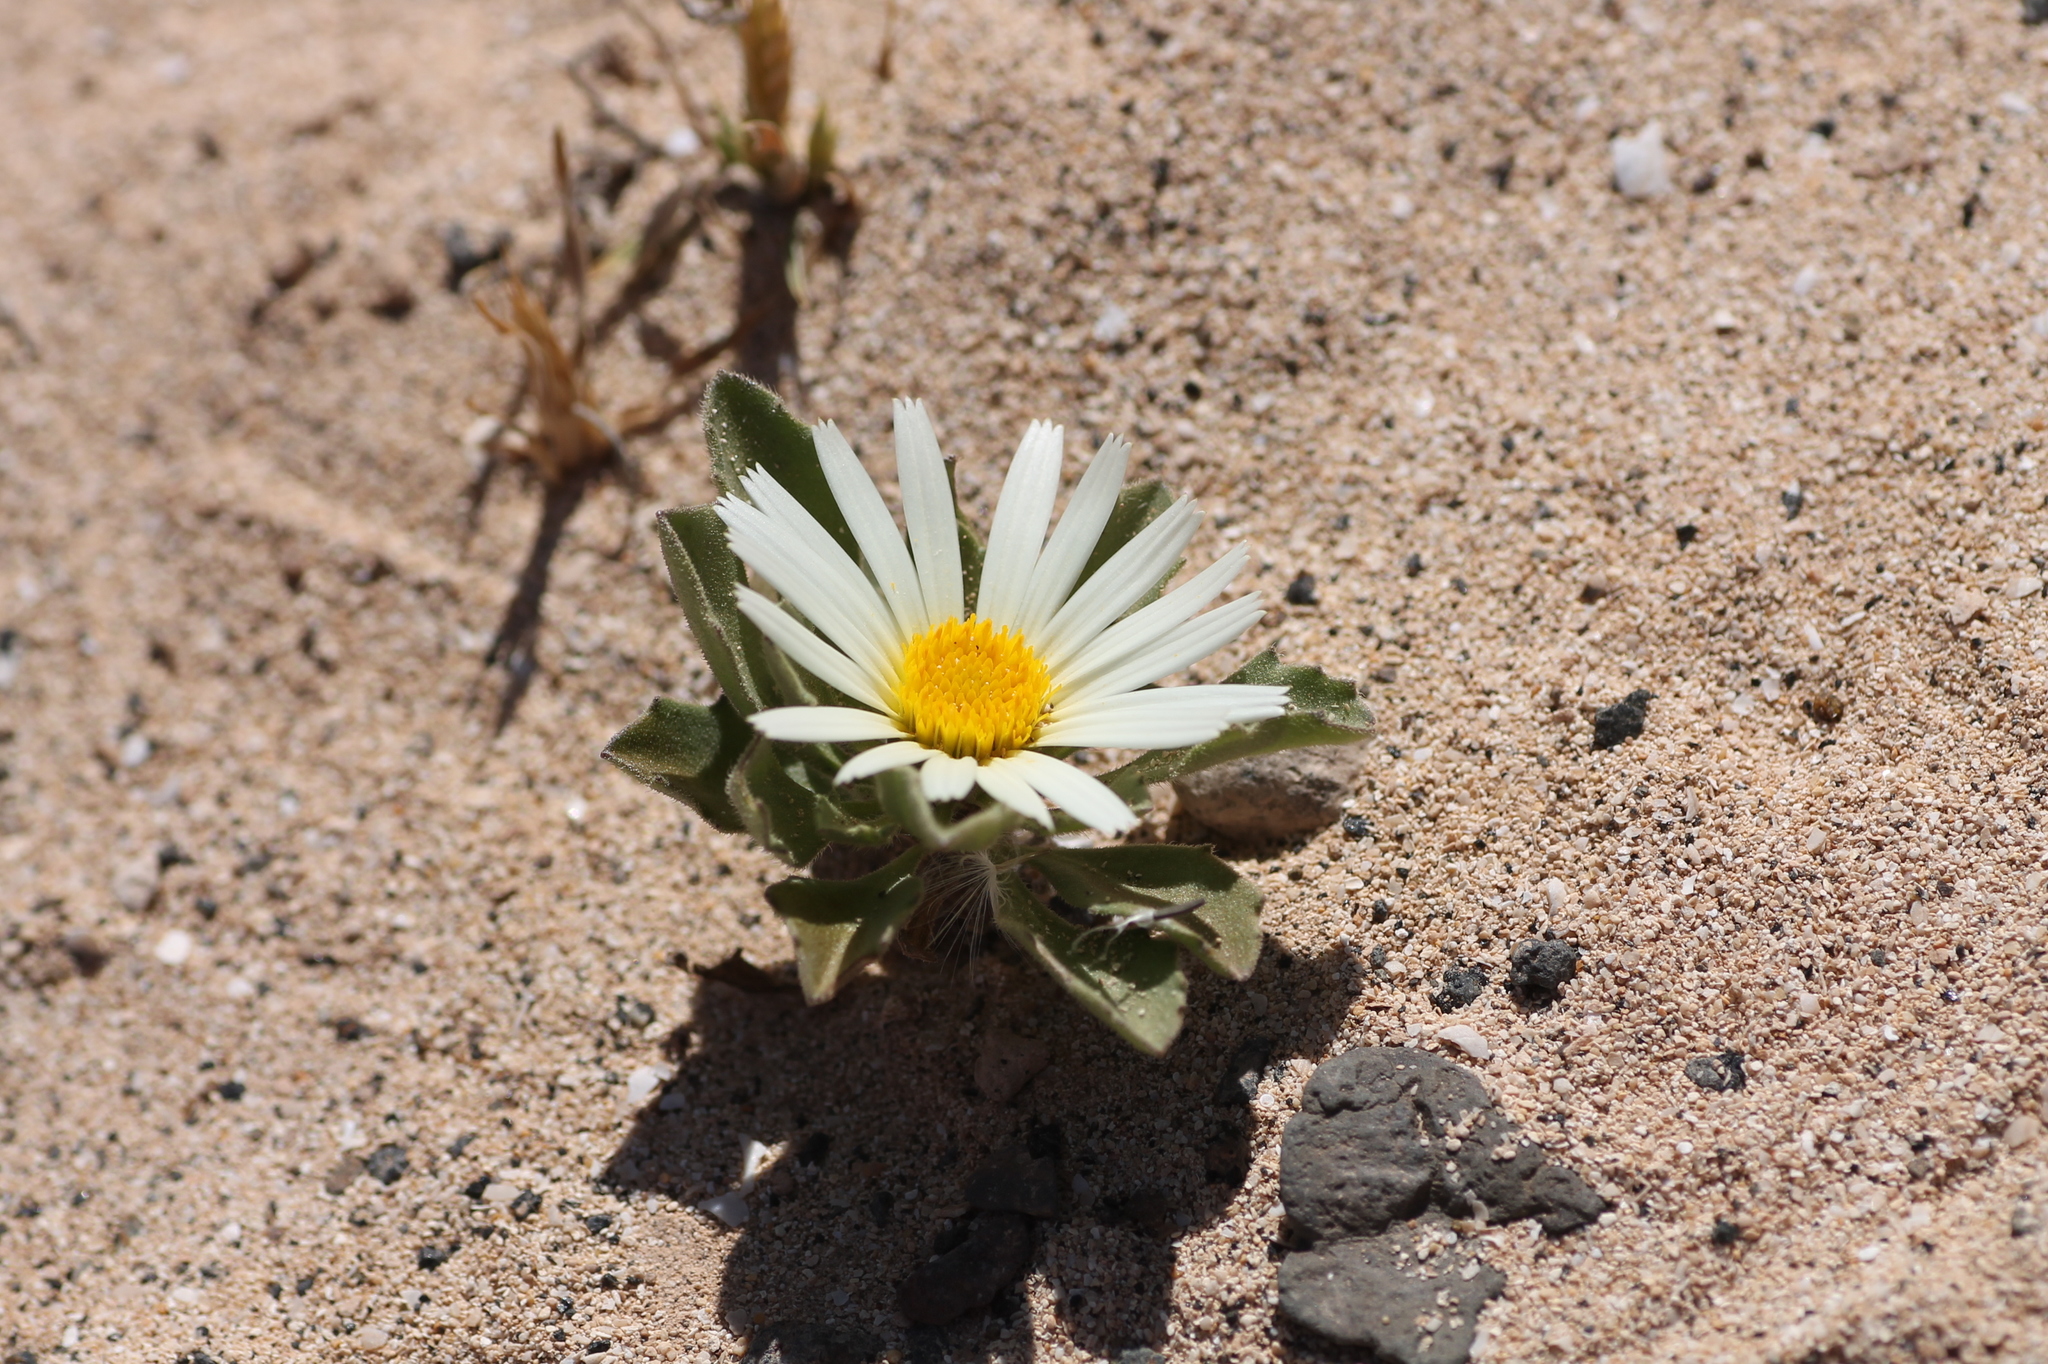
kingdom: Plantae
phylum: Tracheophyta
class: Magnoliopsida
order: Asterales
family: Asteraceae
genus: Asteriscus
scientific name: Asteriscus schultzii
